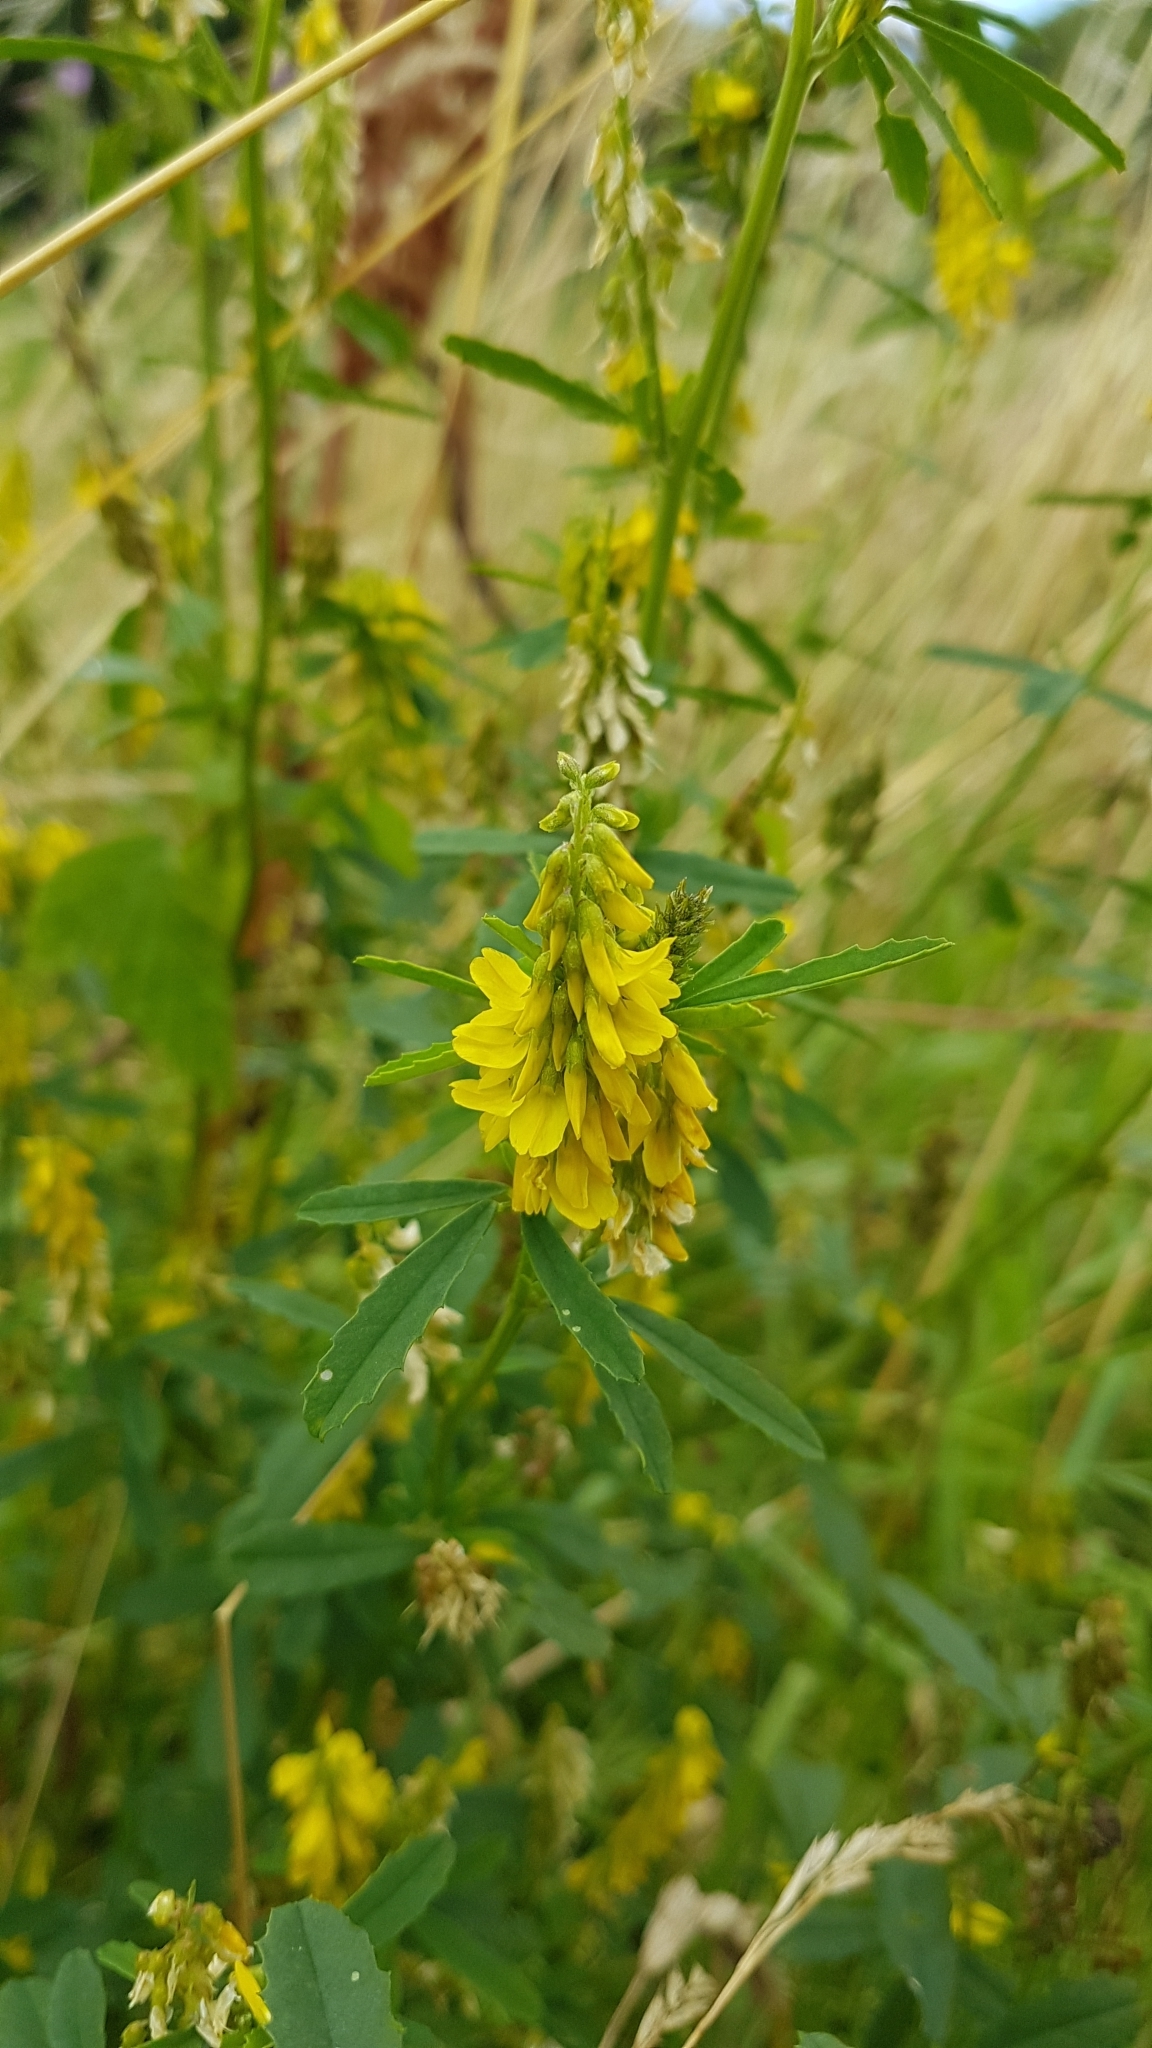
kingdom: Plantae
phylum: Tracheophyta
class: Magnoliopsida
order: Fabales
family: Fabaceae
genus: Melilotus
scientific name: Melilotus officinalis
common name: Sweetclover
